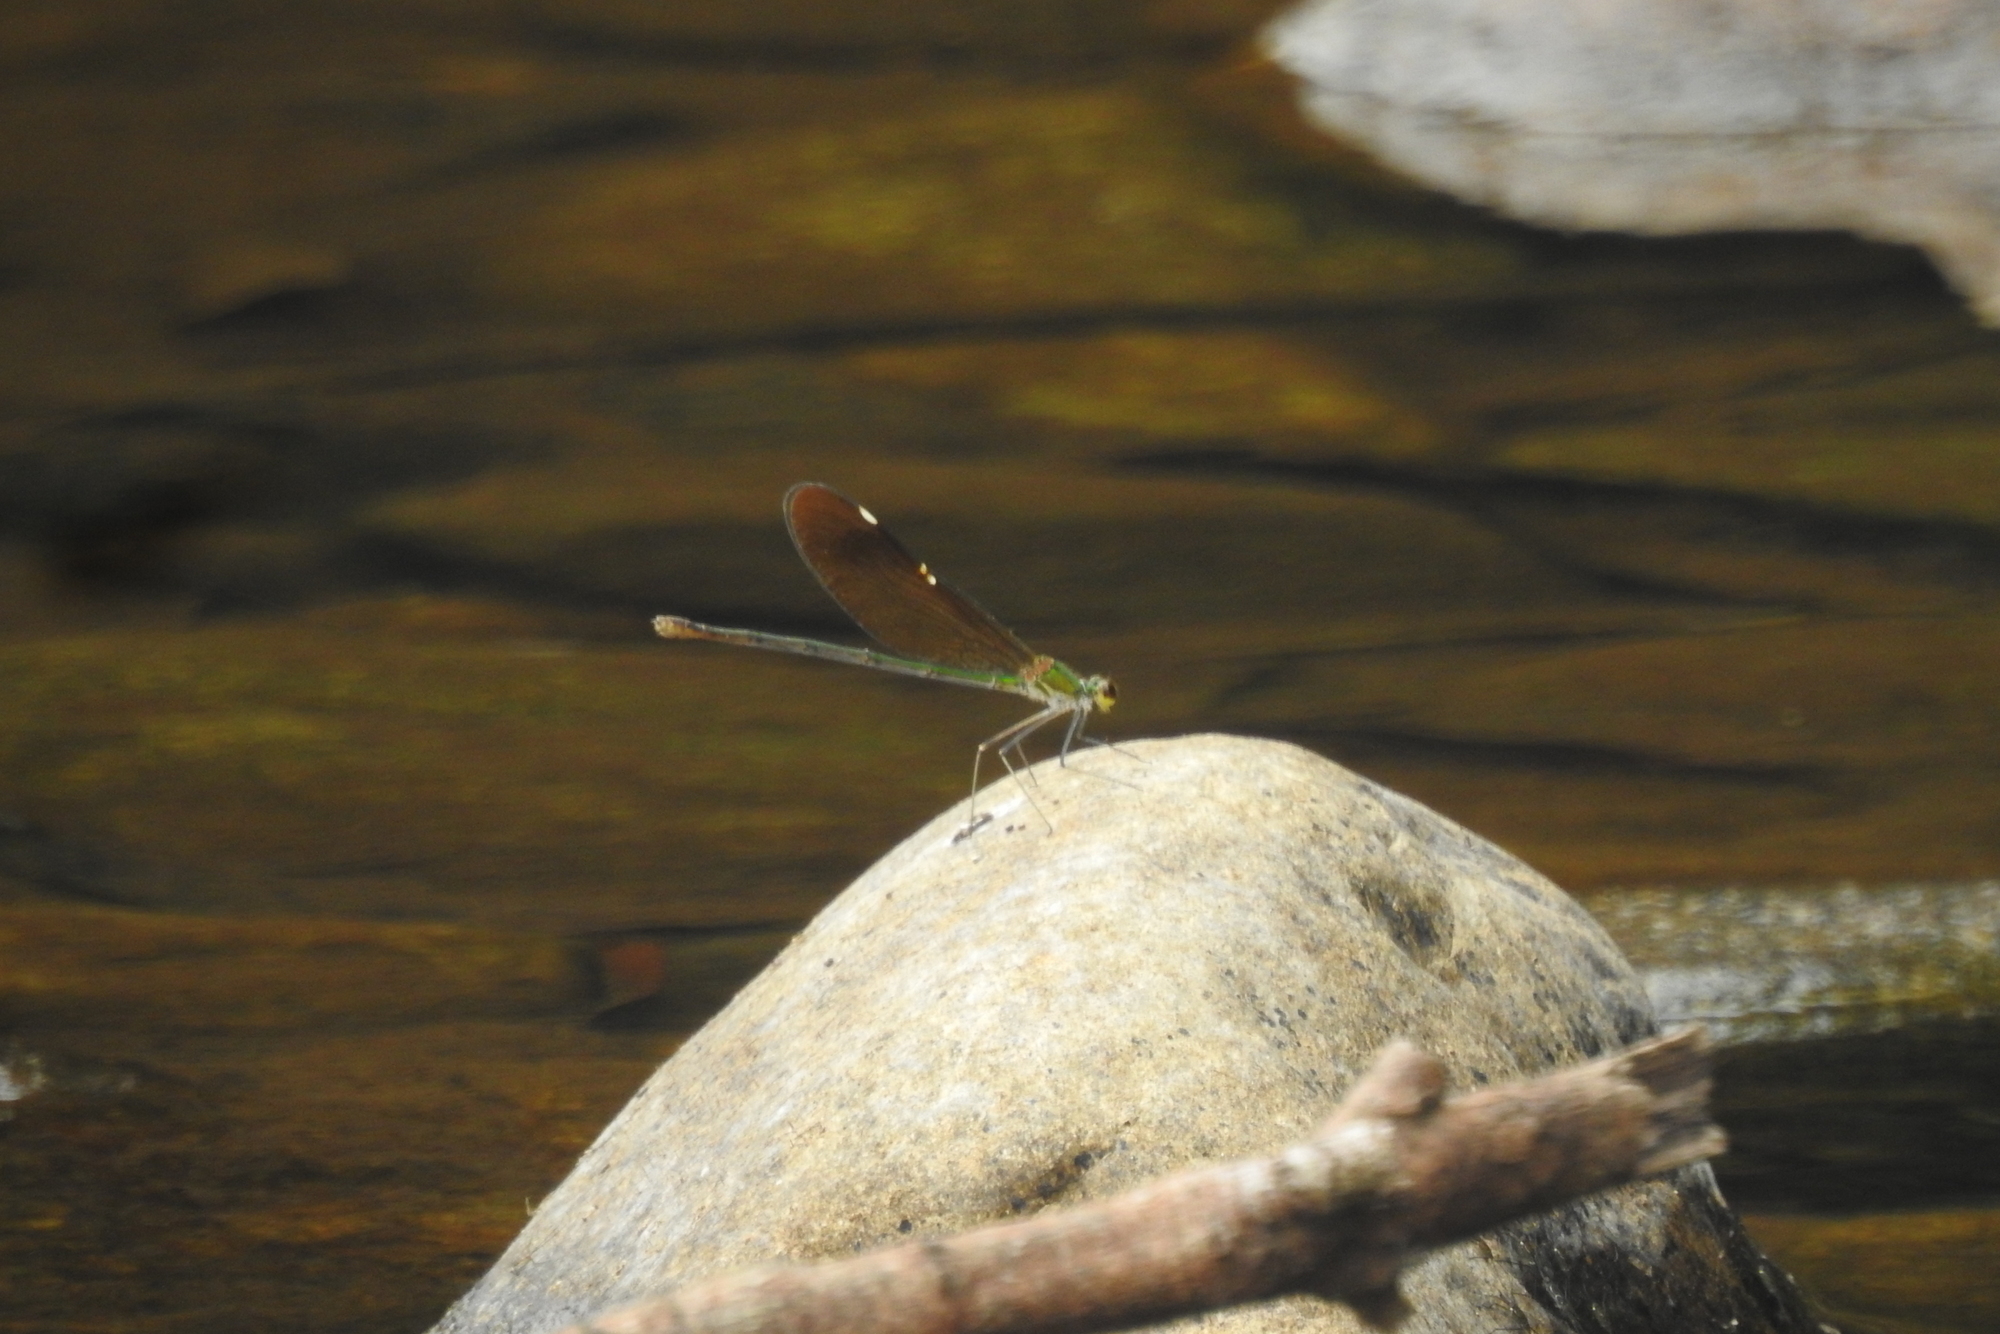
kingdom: Animalia
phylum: Arthropoda
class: Insecta
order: Odonata
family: Calopterygidae
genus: Neurobasis
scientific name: Neurobasis chinensis
